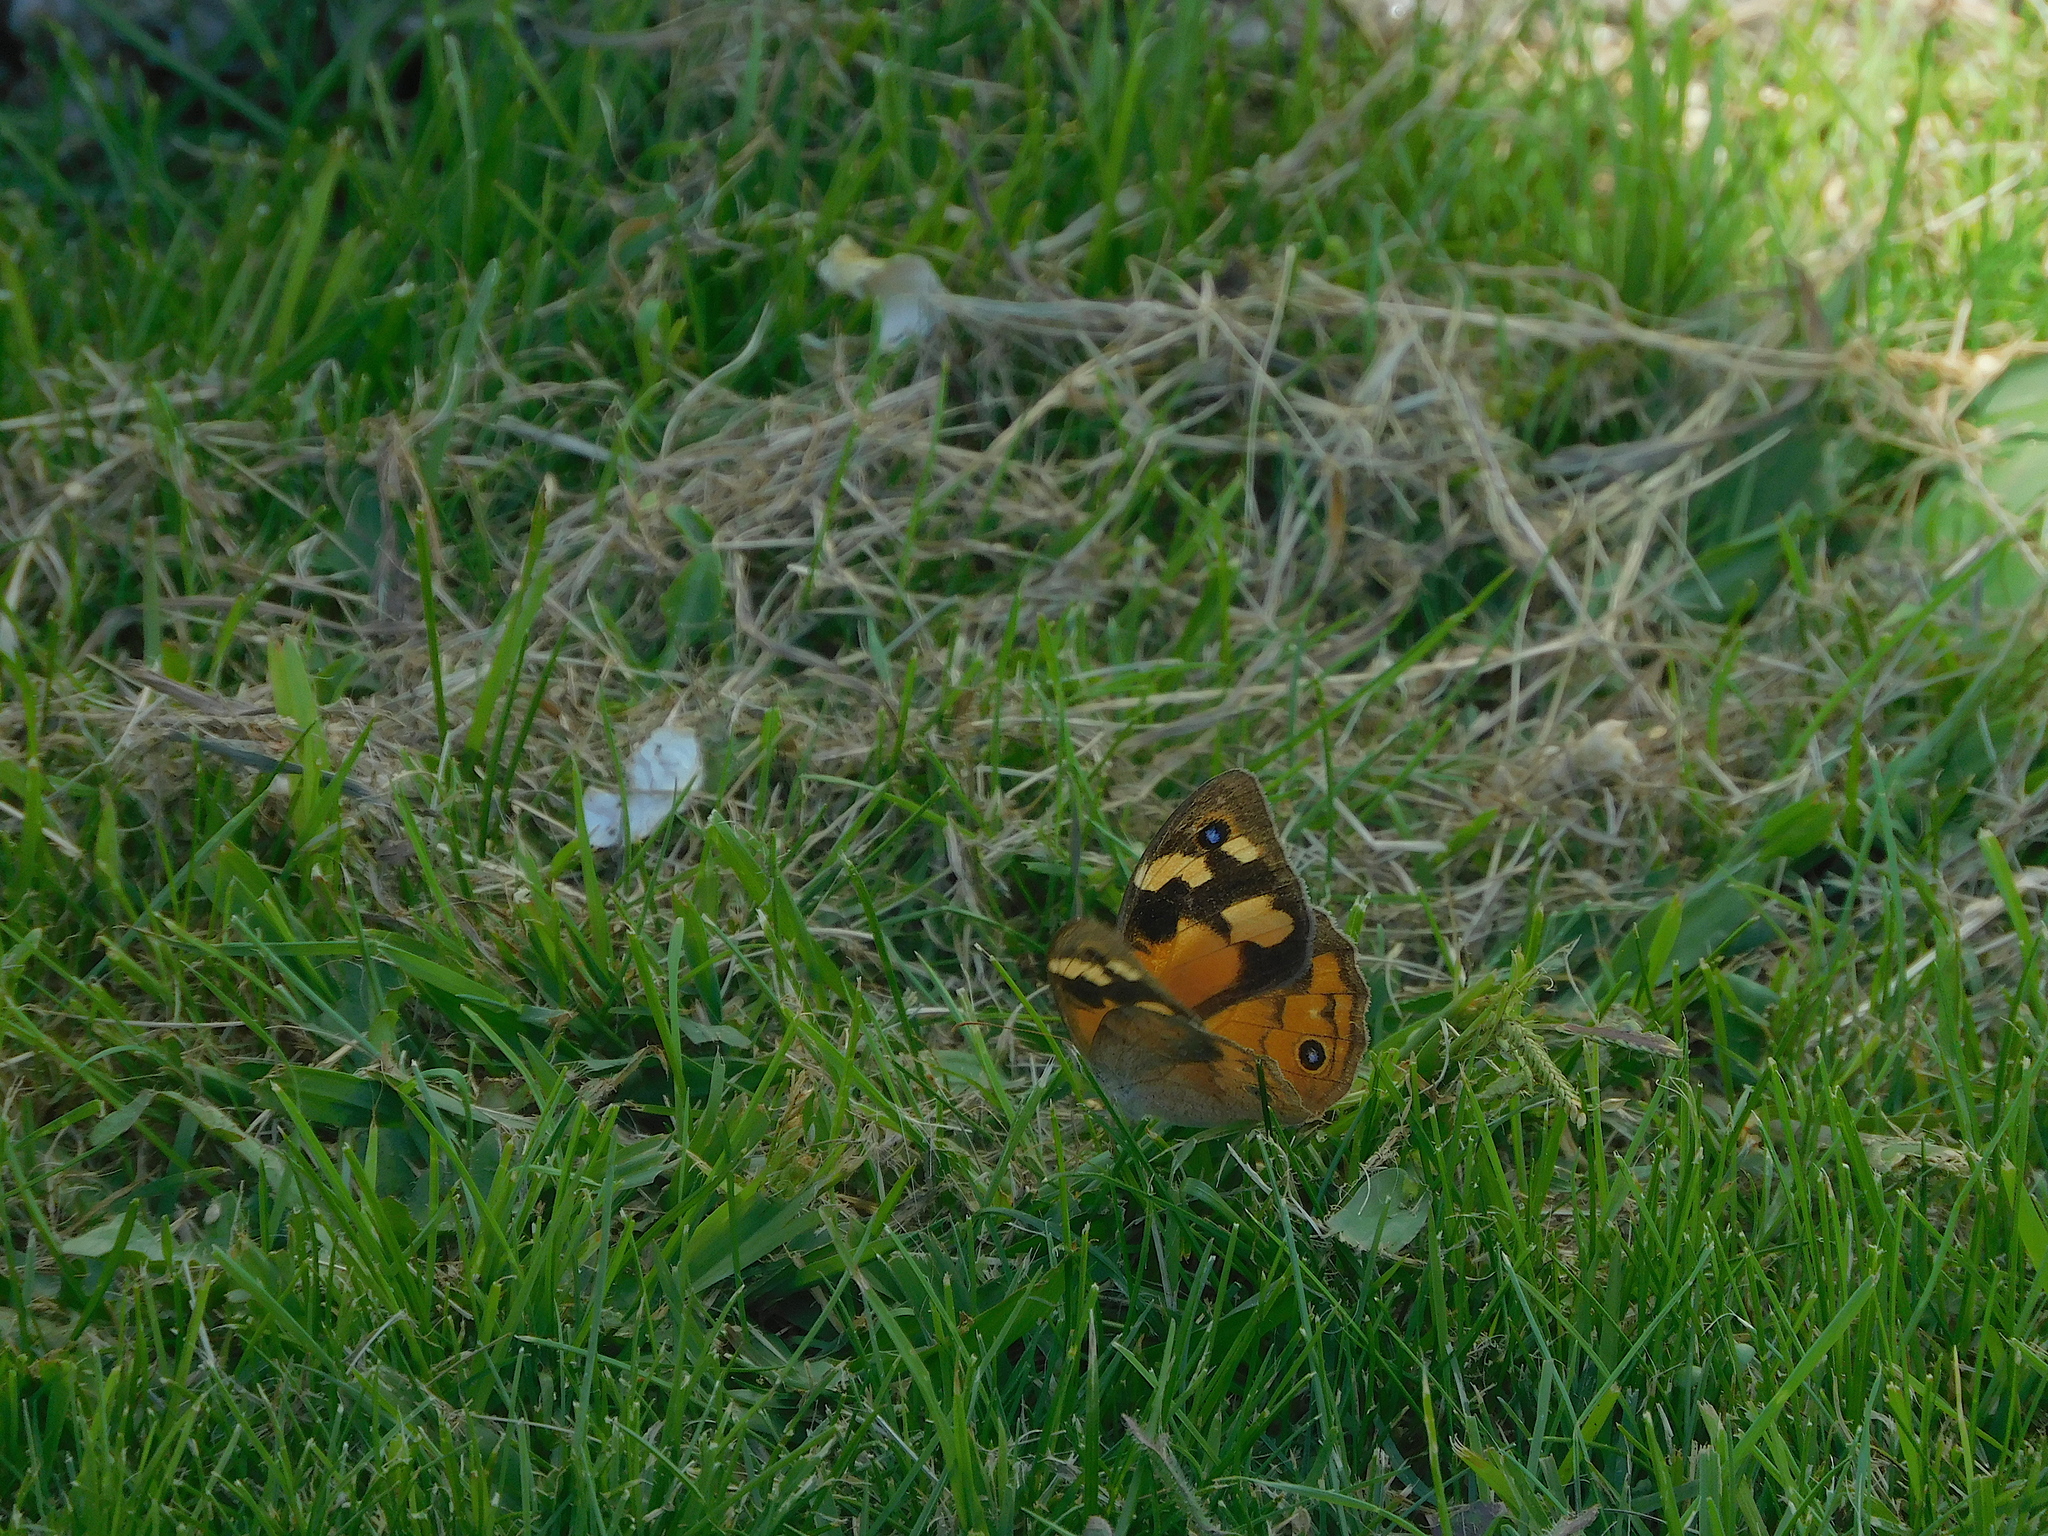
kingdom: Animalia
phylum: Arthropoda
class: Insecta
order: Lepidoptera
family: Nymphalidae
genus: Heteronympha
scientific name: Heteronympha merope
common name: Common brown
